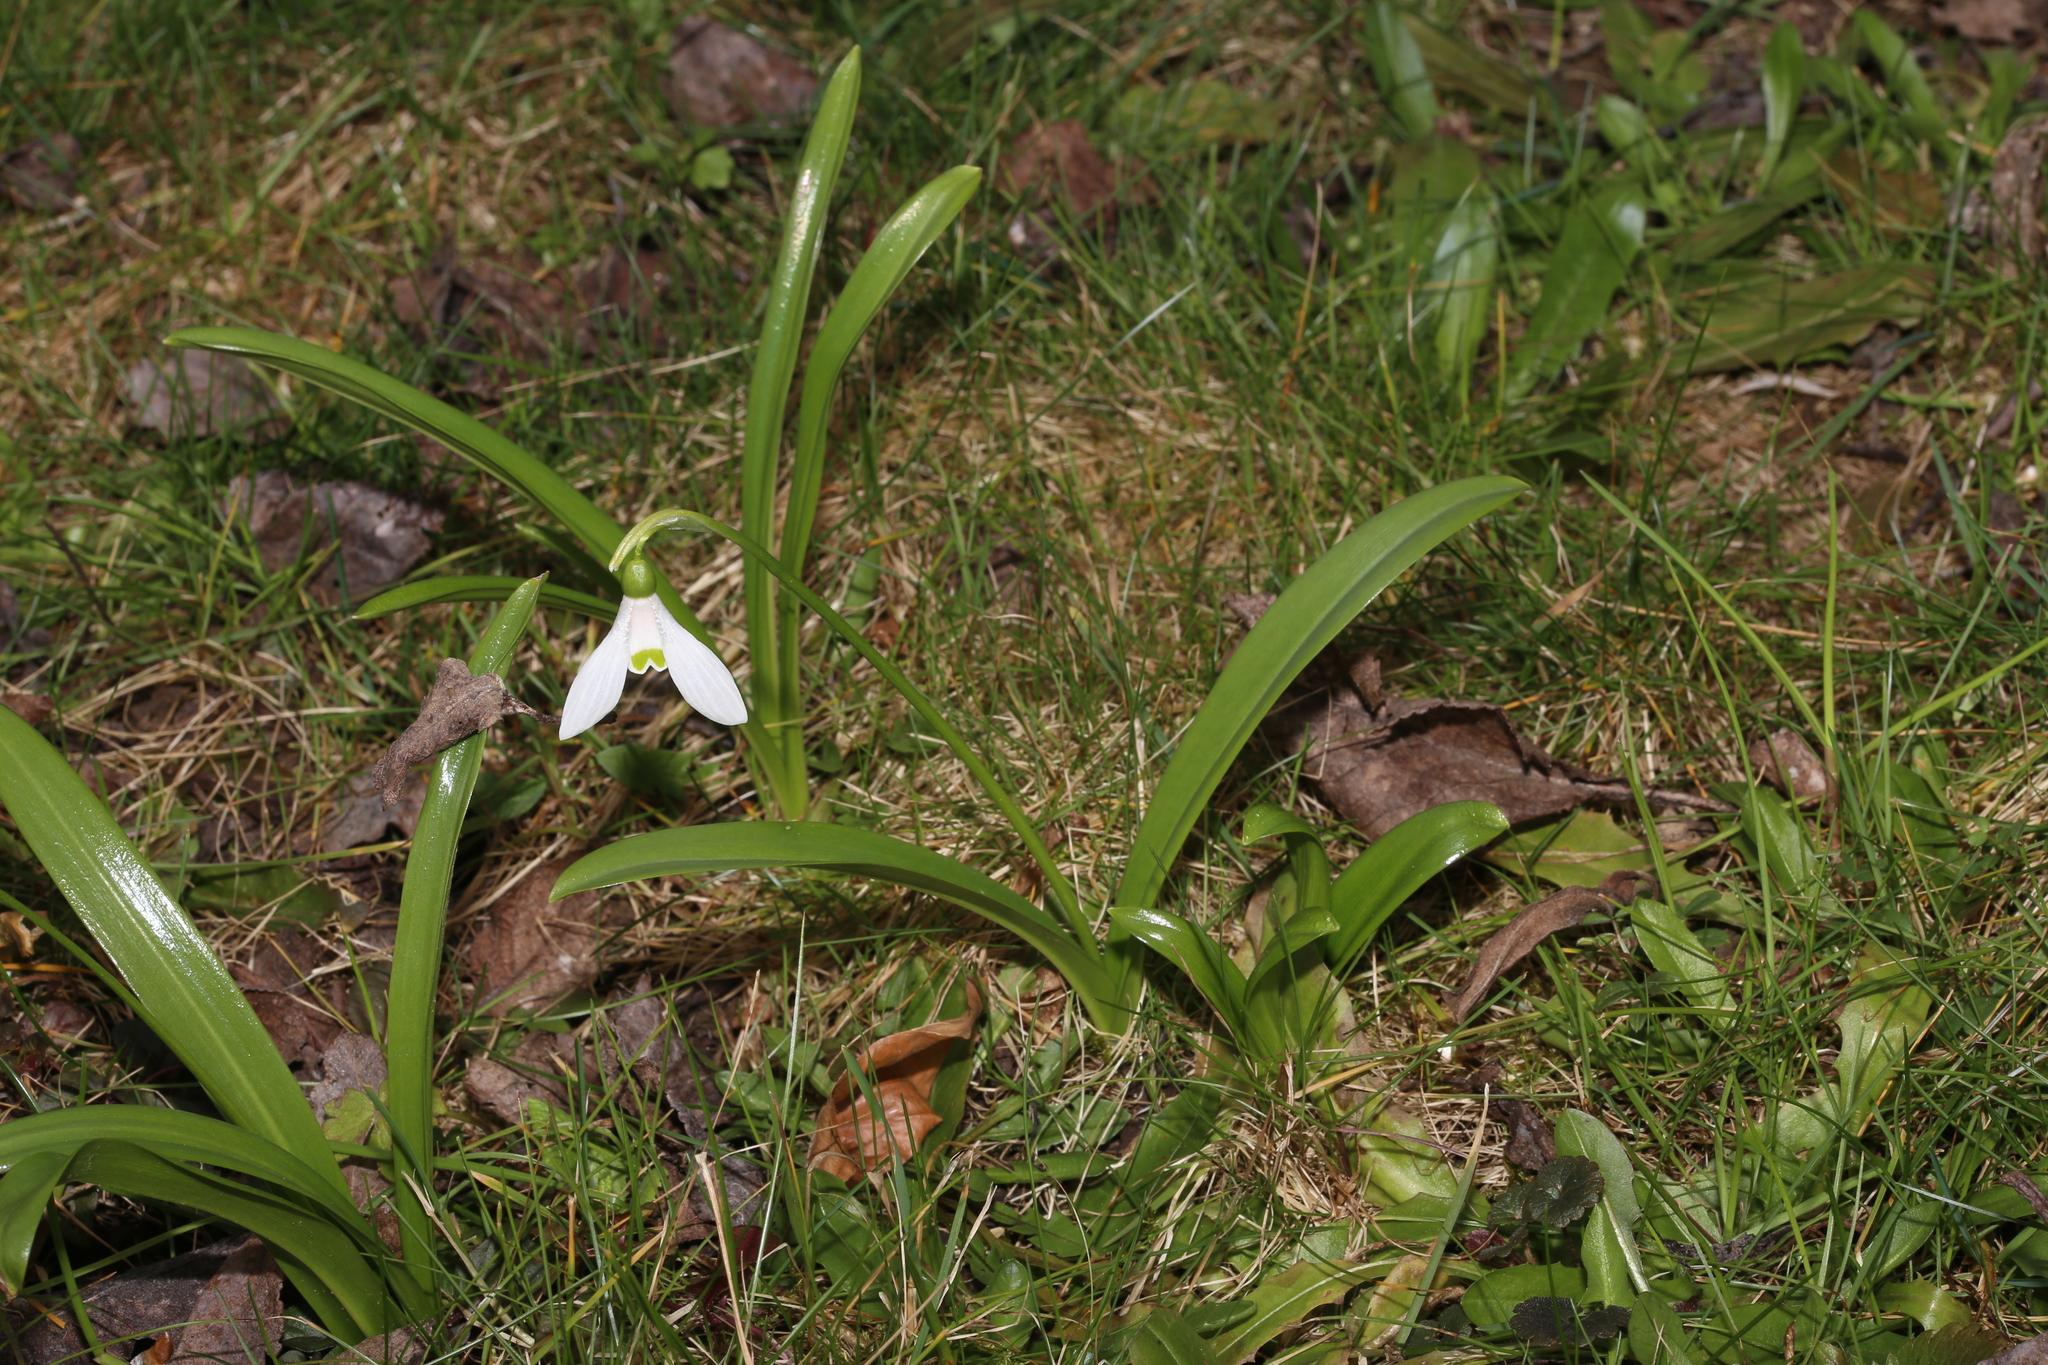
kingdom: Plantae
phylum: Tracheophyta
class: Liliopsida
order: Asparagales
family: Amaryllidaceae
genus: Galanthus
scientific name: Galanthus woronowii
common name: Green snowdrop
